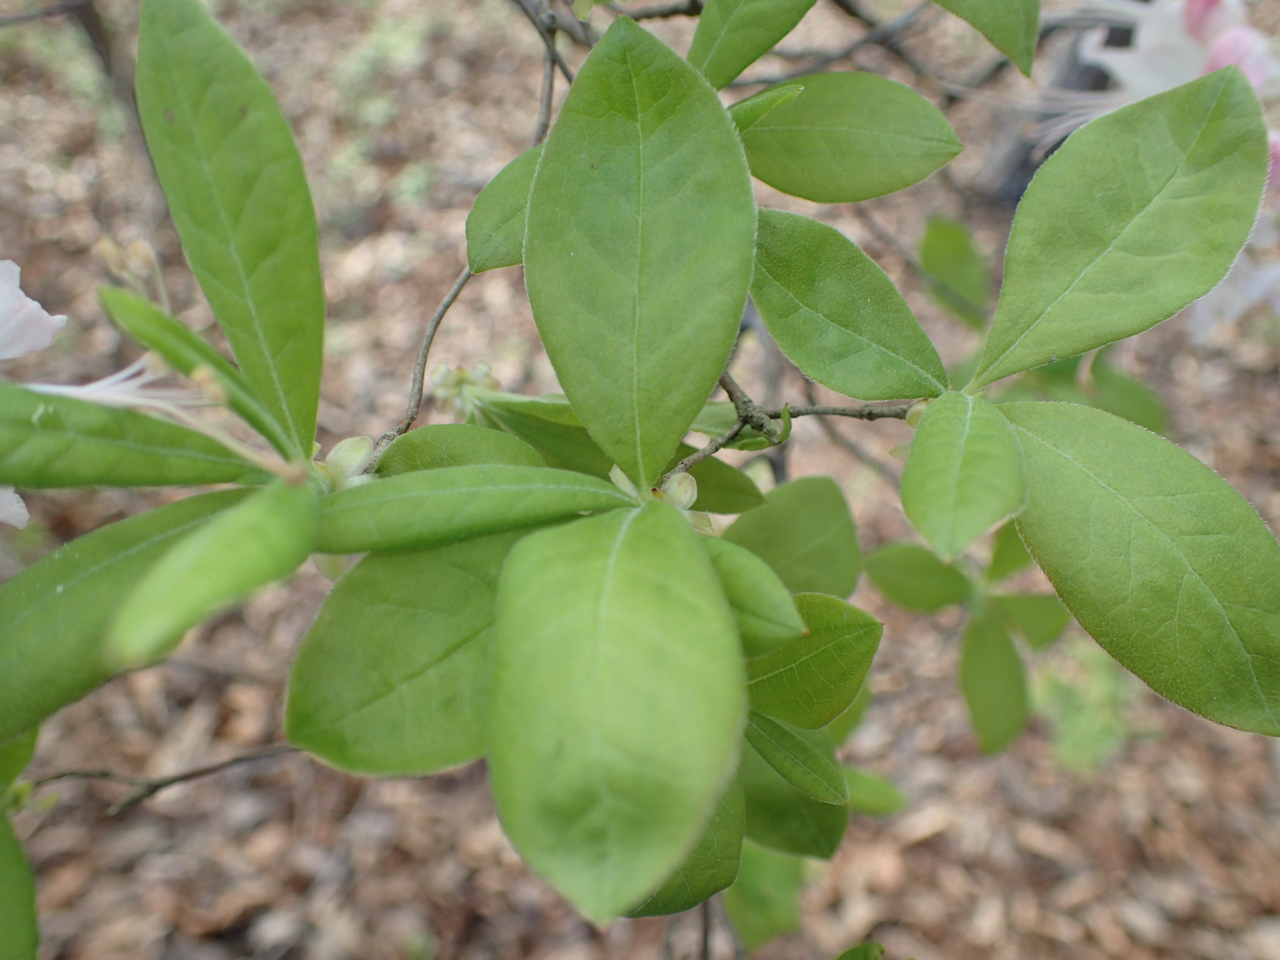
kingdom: Plantae
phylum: Tracheophyta
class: Magnoliopsida
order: Ericales
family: Ericaceae
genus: Rhododendron
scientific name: Rhododendron canescens
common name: Mountain azalea
